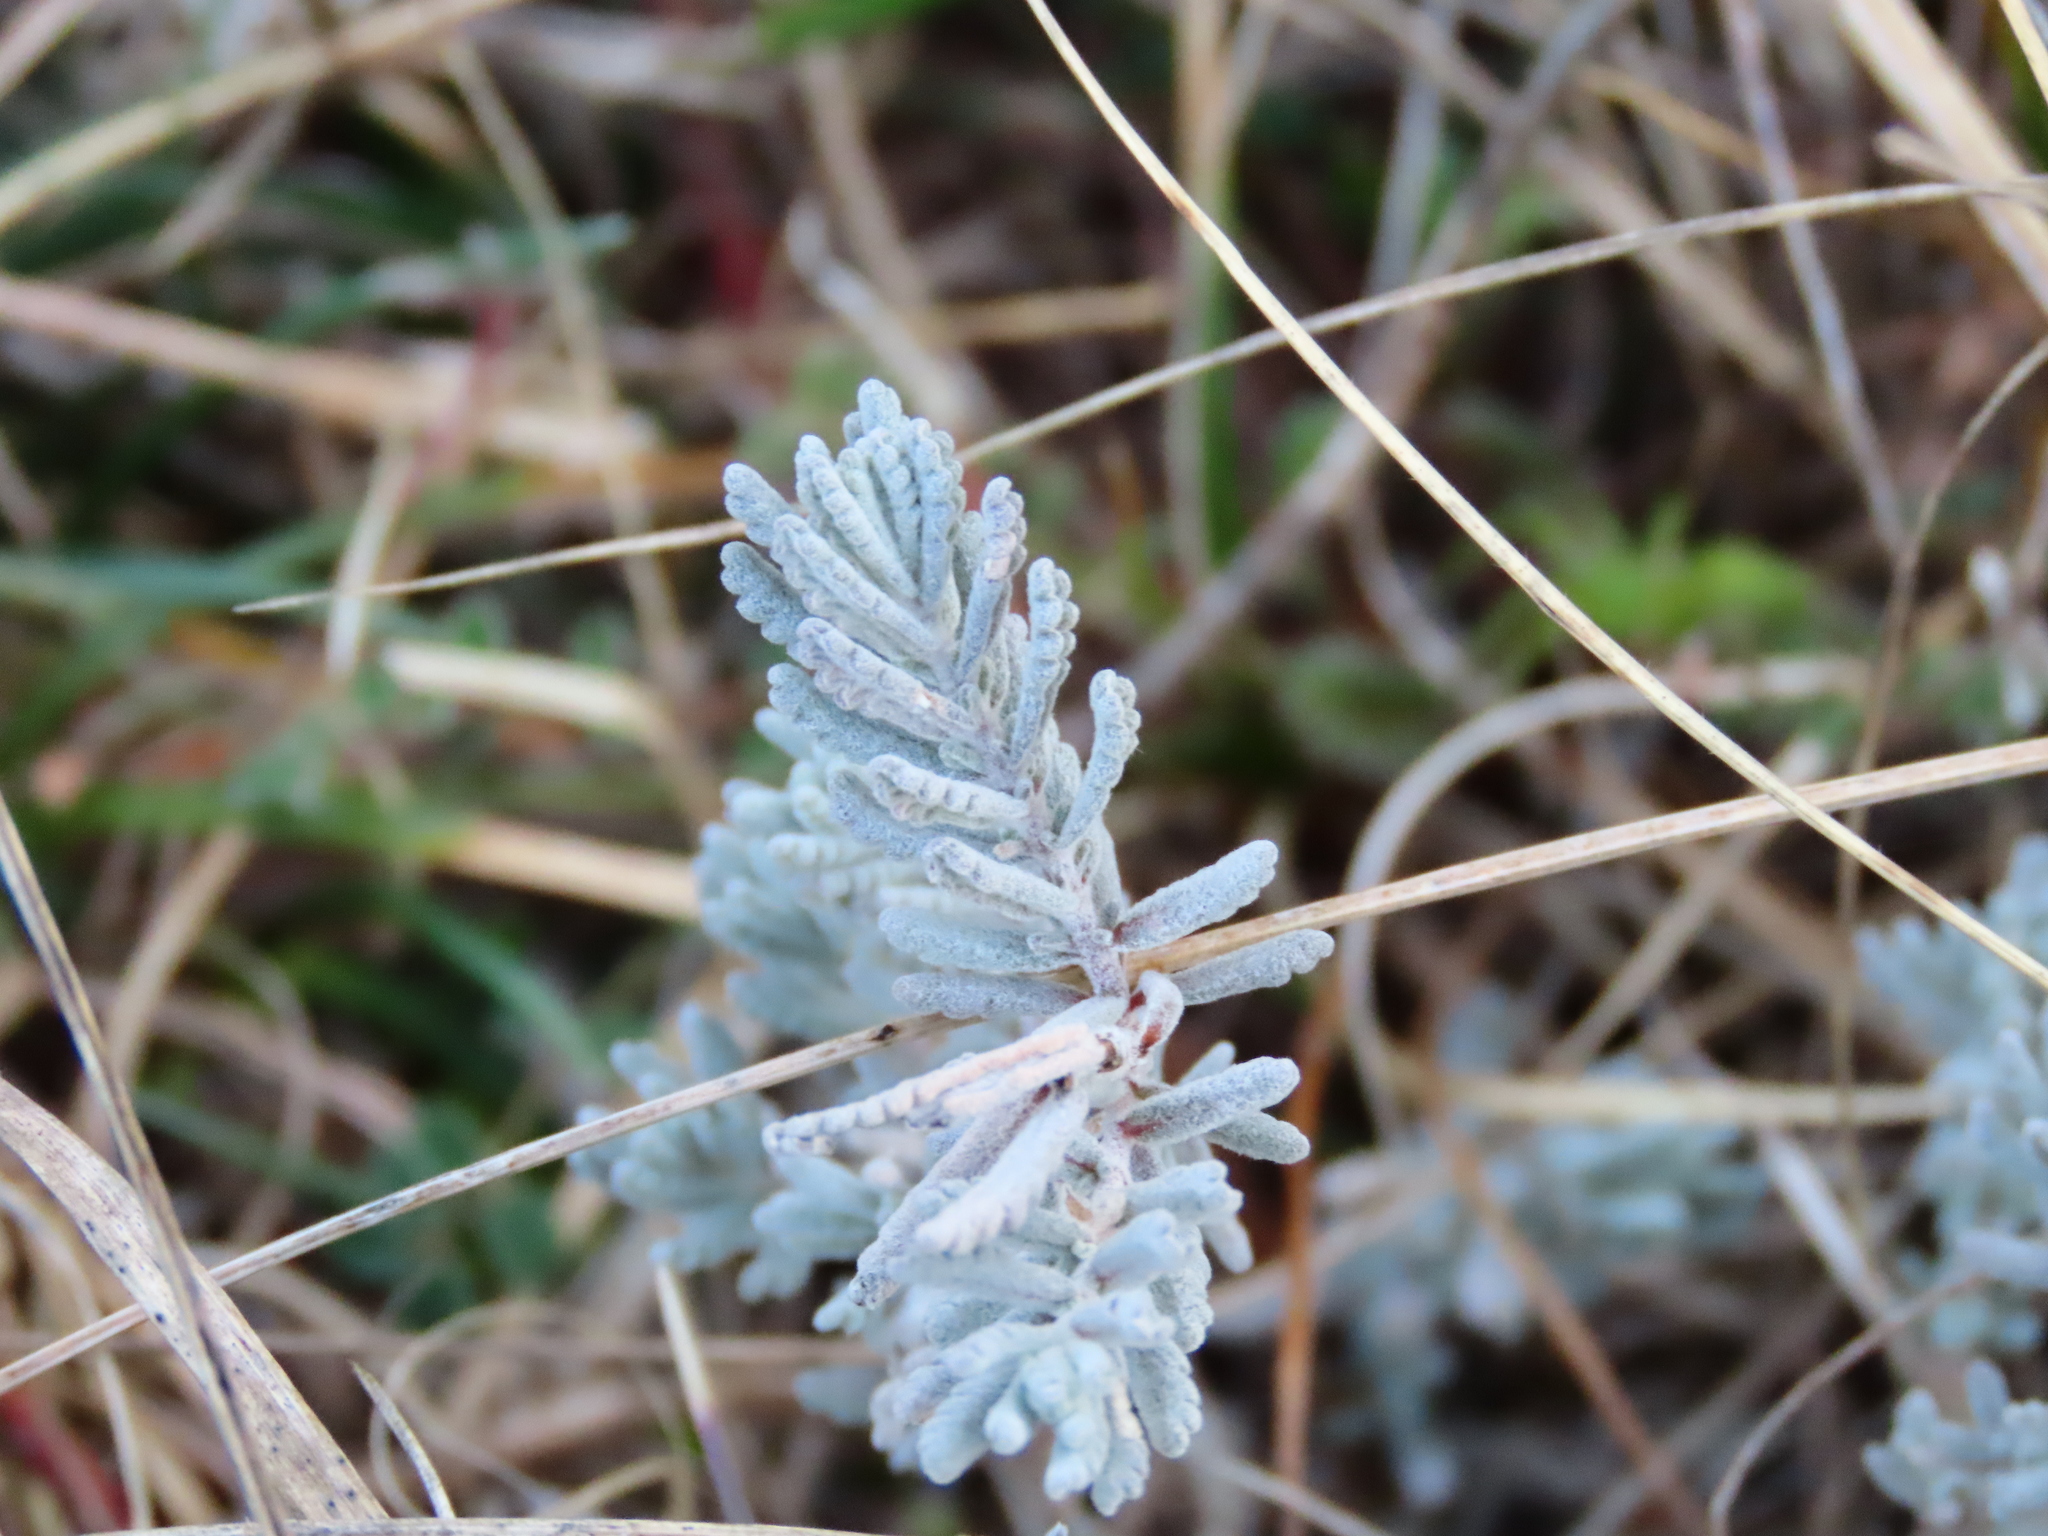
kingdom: Plantae
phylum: Tracheophyta
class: Magnoliopsida
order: Lamiales
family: Lamiaceae
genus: Teucrium
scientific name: Teucrium capitatum
